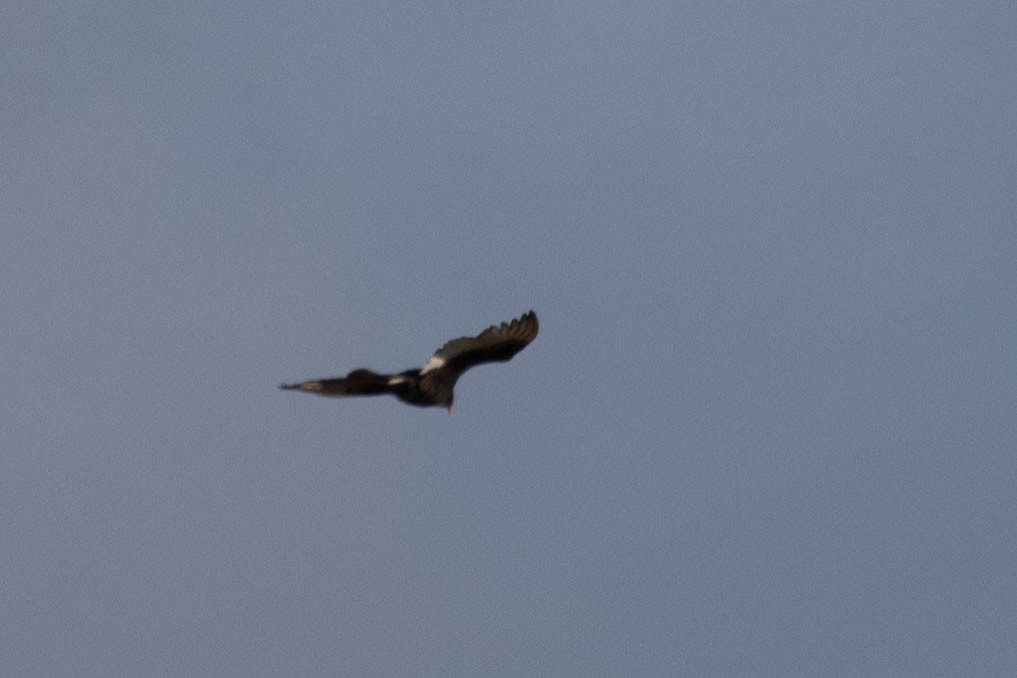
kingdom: Animalia
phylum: Chordata
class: Aves
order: Accipitriformes
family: Cathartidae
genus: Cathartes
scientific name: Cathartes aura
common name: Turkey vulture
